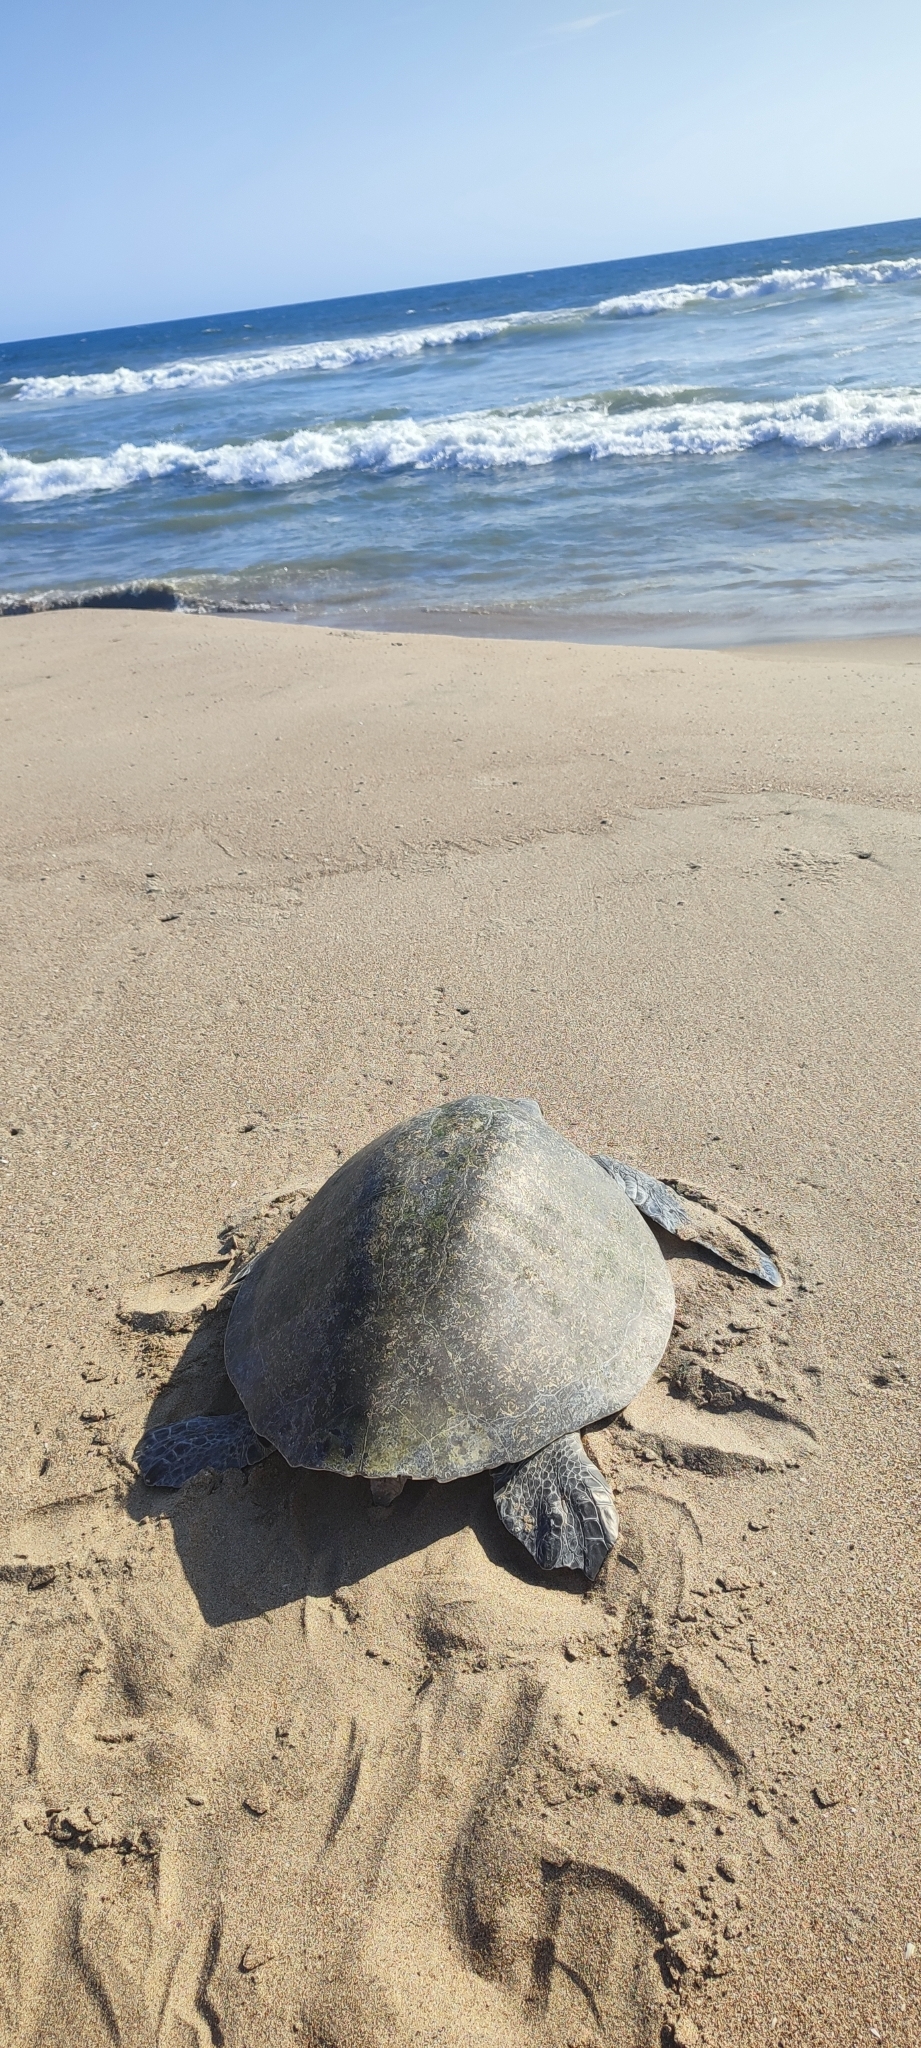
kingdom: Animalia
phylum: Chordata
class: Testudines
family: Cheloniidae
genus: Lepidochelys
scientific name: Lepidochelys olivacea
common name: Olive ridley
